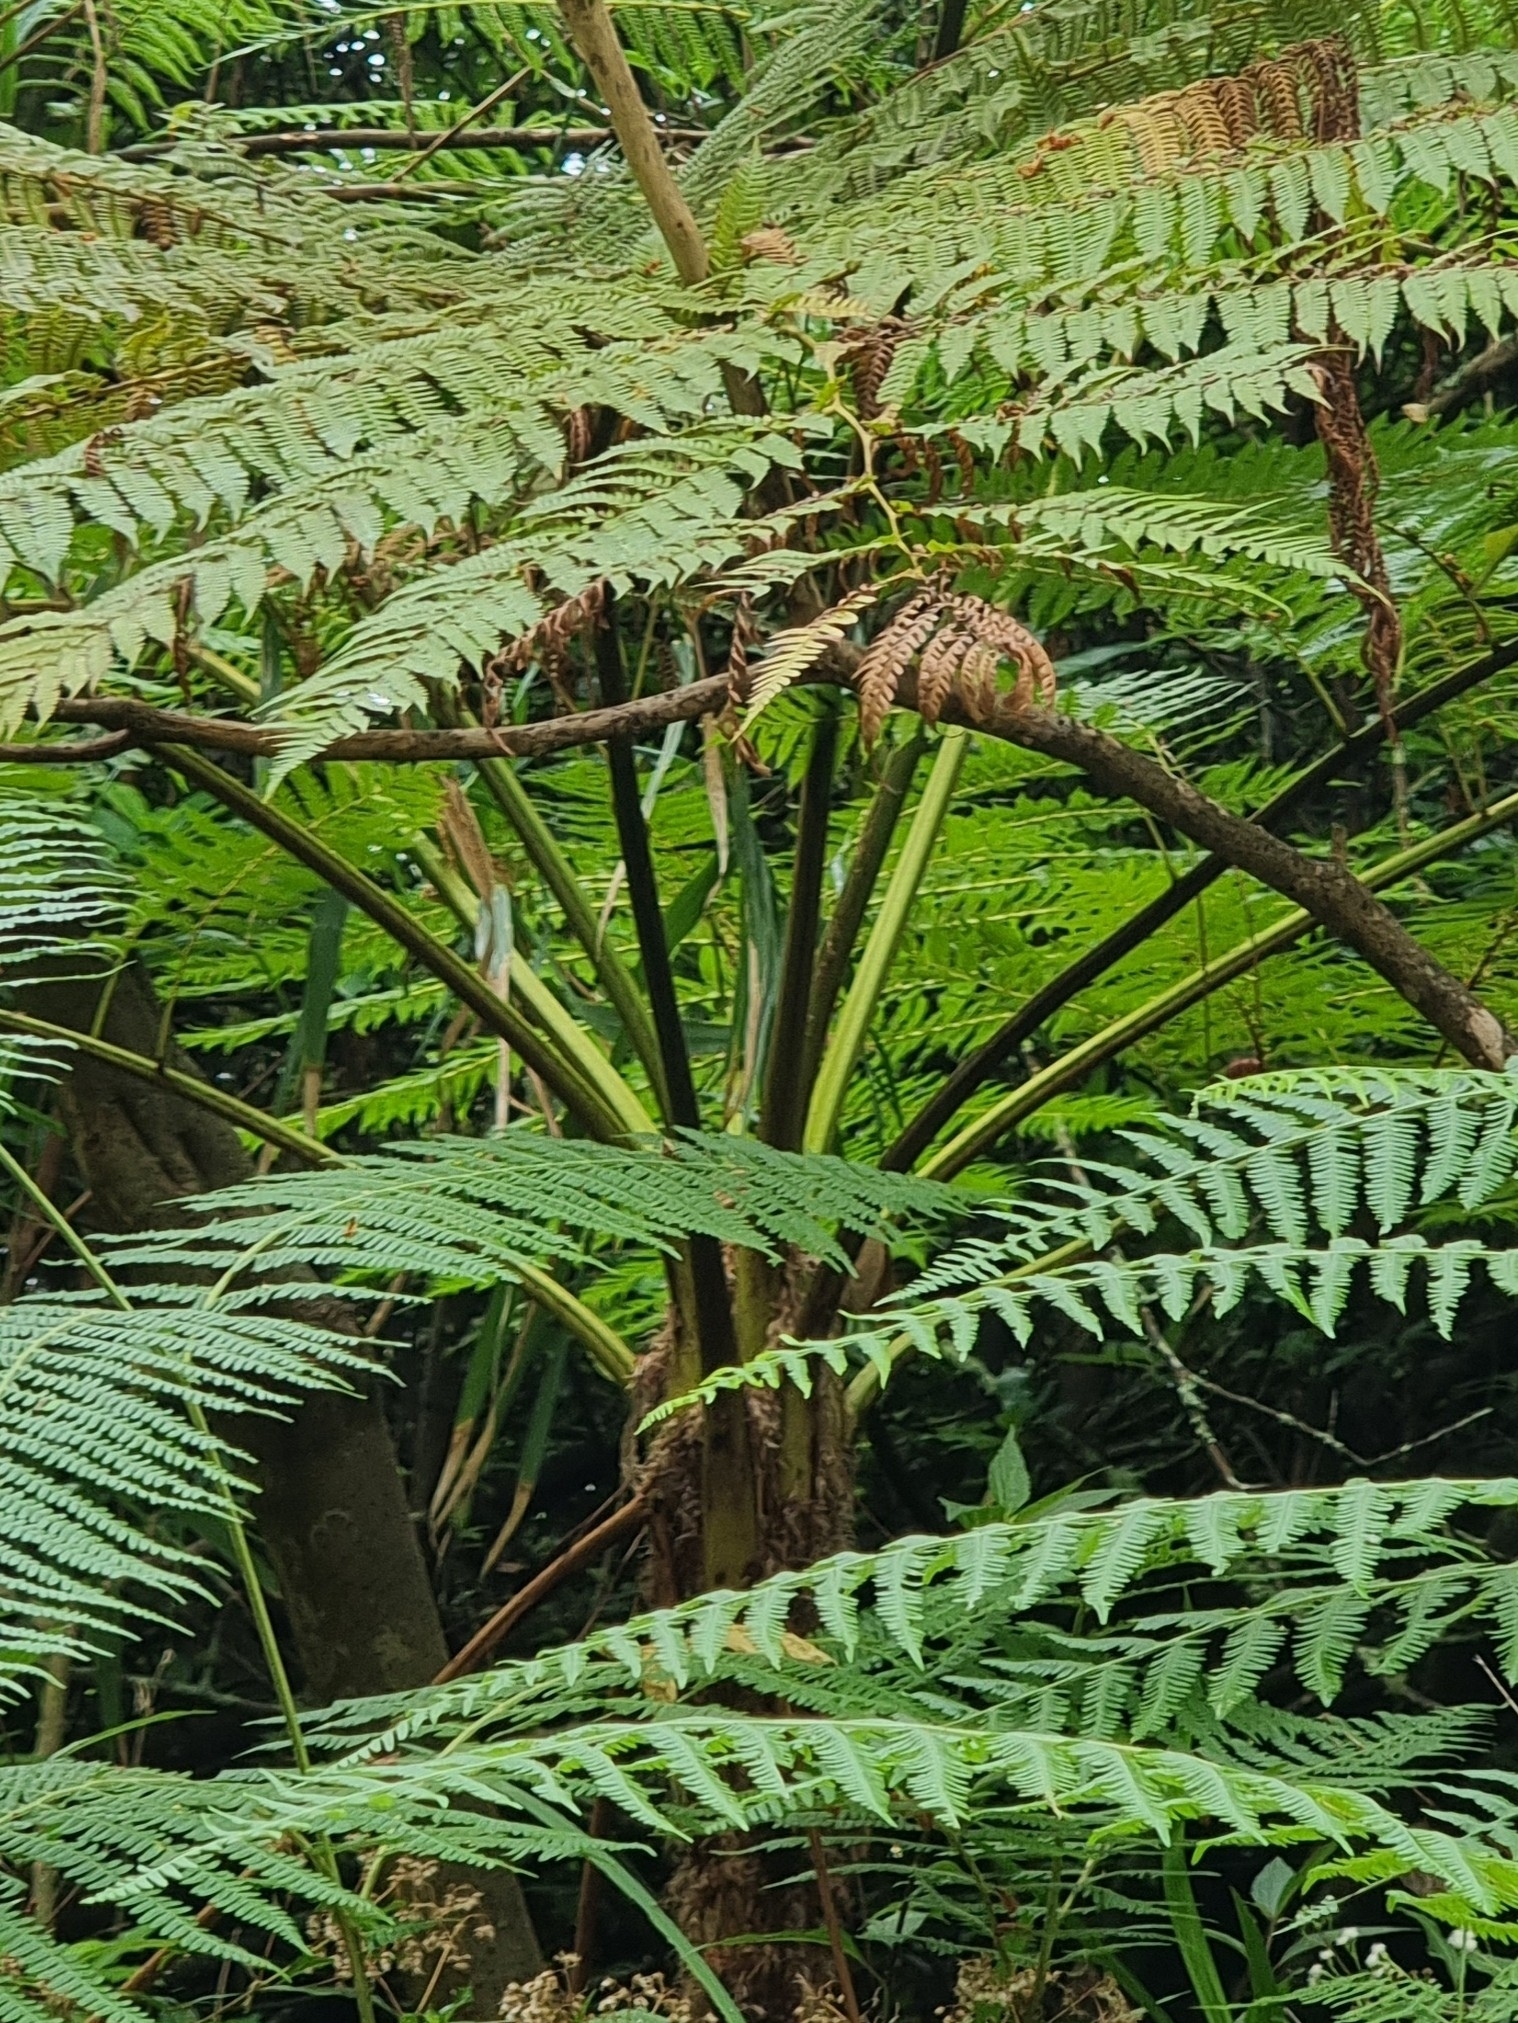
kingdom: Plantae
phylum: Tracheophyta
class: Polypodiopsida
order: Cyatheales
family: Cyatheaceae
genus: Sphaeropteris
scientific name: Sphaeropteris cooperi
